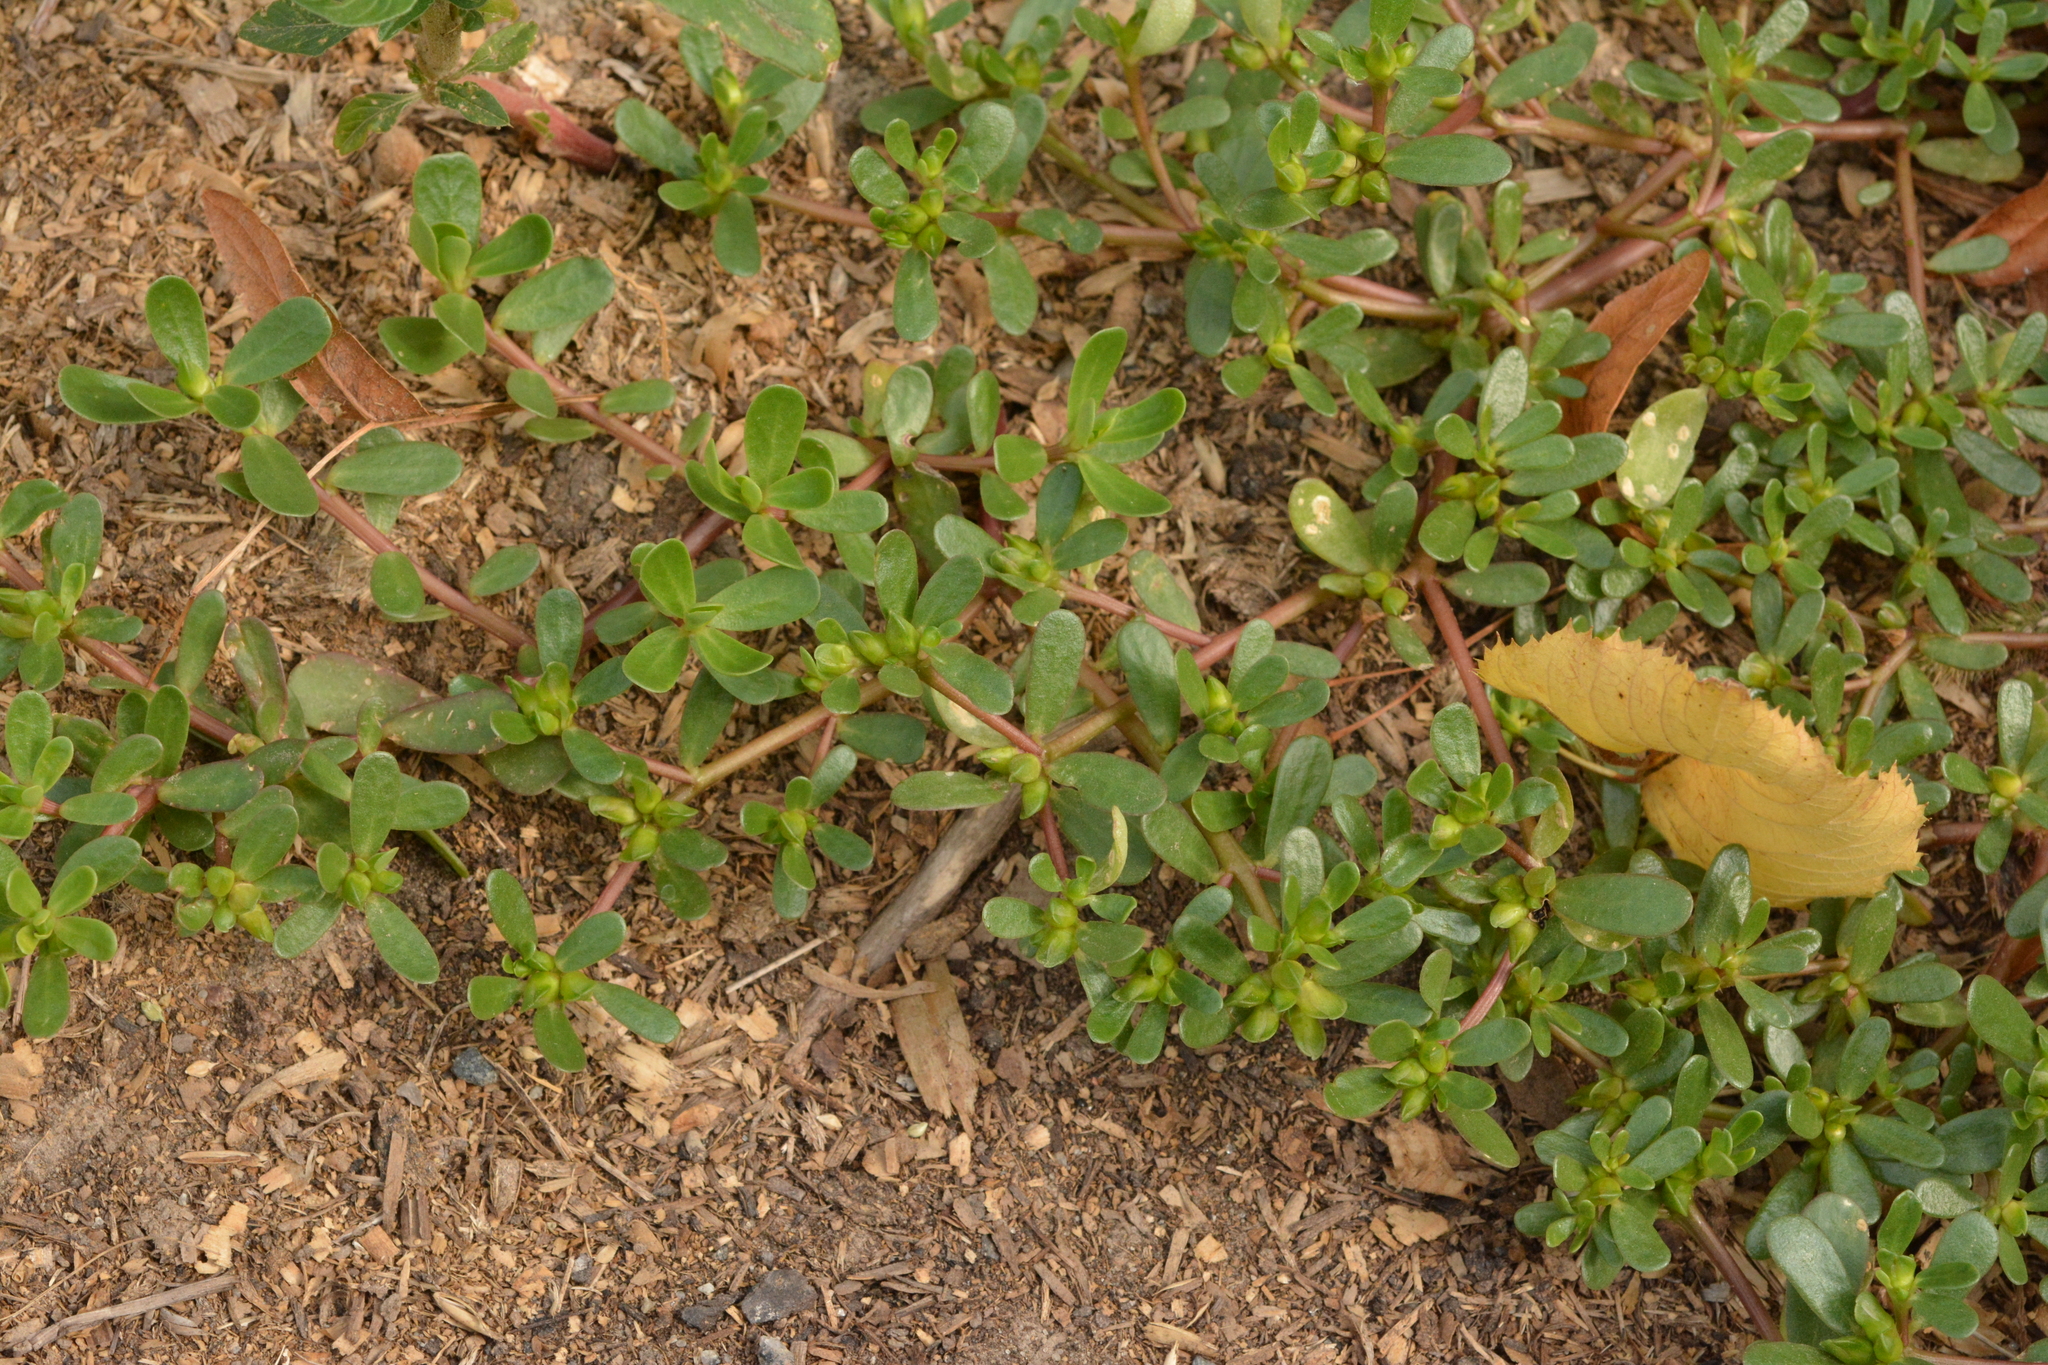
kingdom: Plantae
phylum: Tracheophyta
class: Magnoliopsida
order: Caryophyllales
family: Portulacaceae
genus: Portulaca
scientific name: Portulaca oleracea
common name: Common purslane
